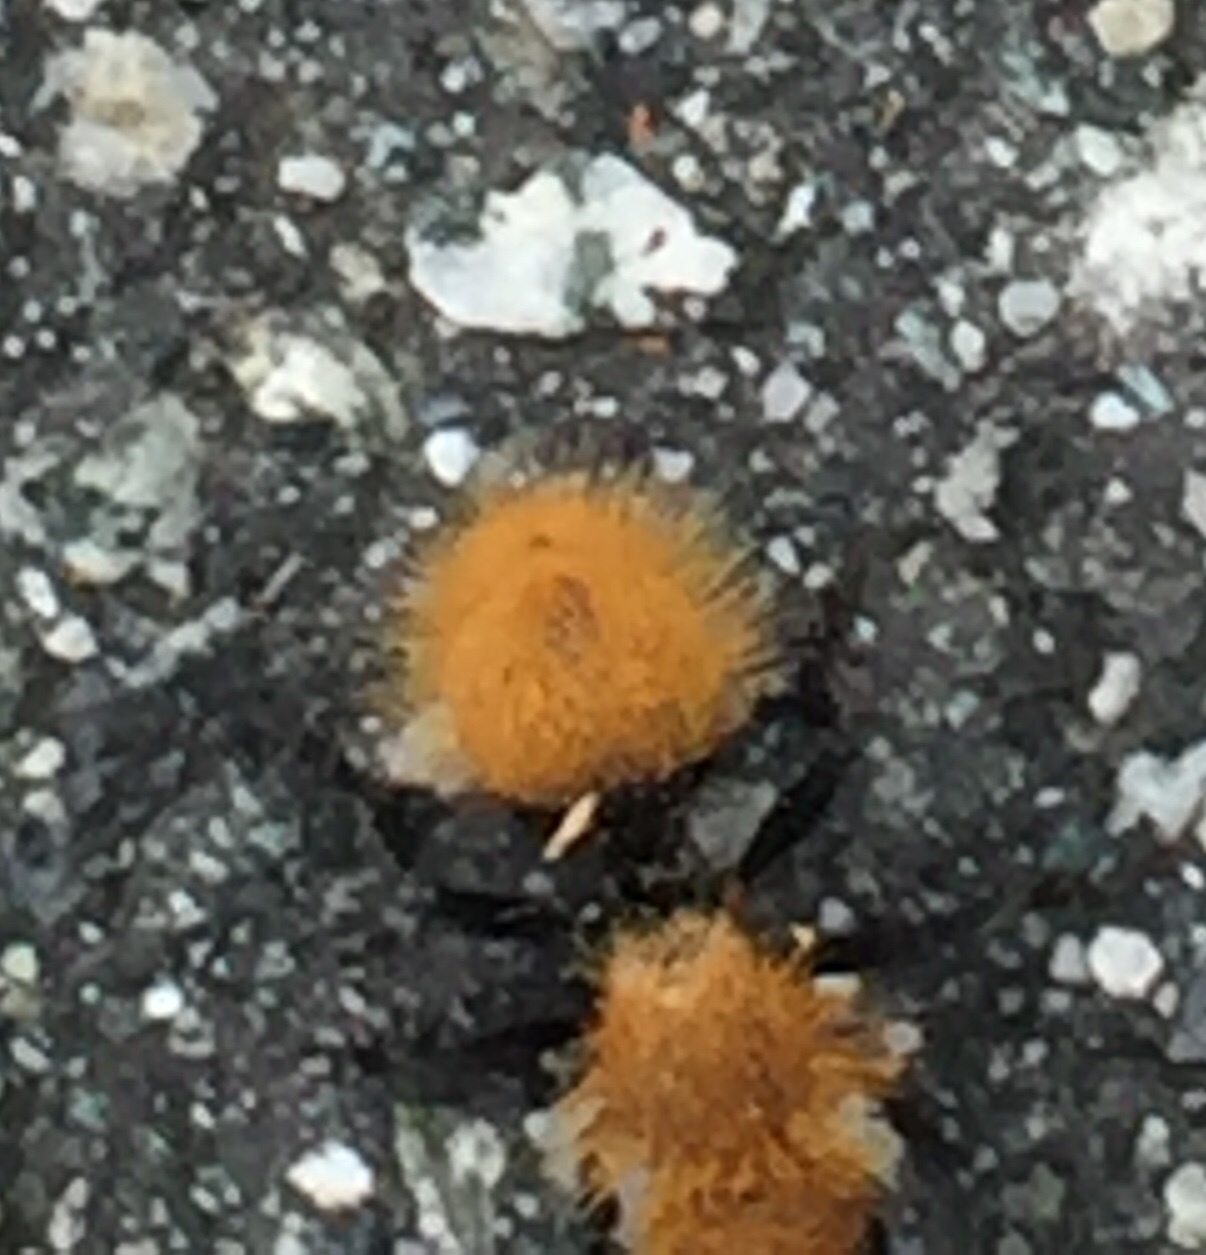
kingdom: Animalia
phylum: Arthropoda
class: Insecta
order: Hymenoptera
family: Mutillidae
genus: Dasymutilla
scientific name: Dasymutilla
